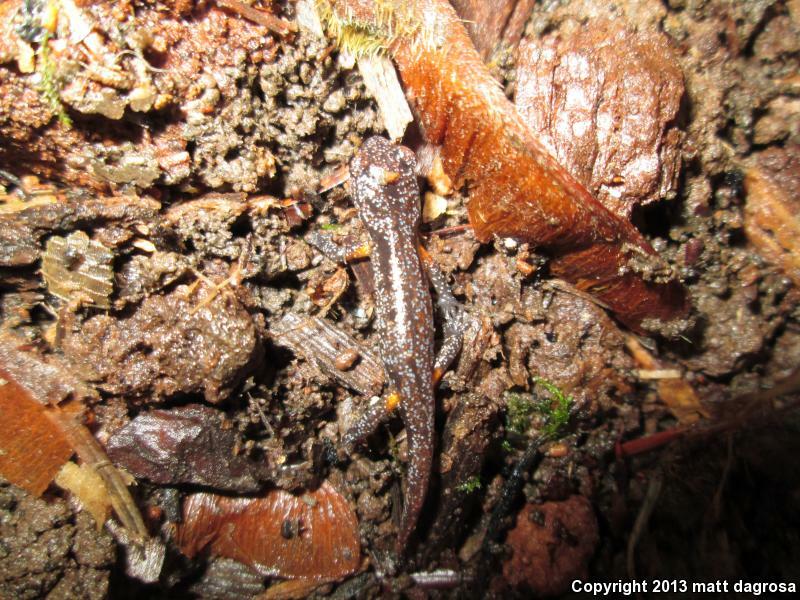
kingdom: Animalia
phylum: Chordata
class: Amphibia
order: Caudata
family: Plethodontidae
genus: Ensatina
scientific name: Ensatina eschscholtzii
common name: Ensatina
